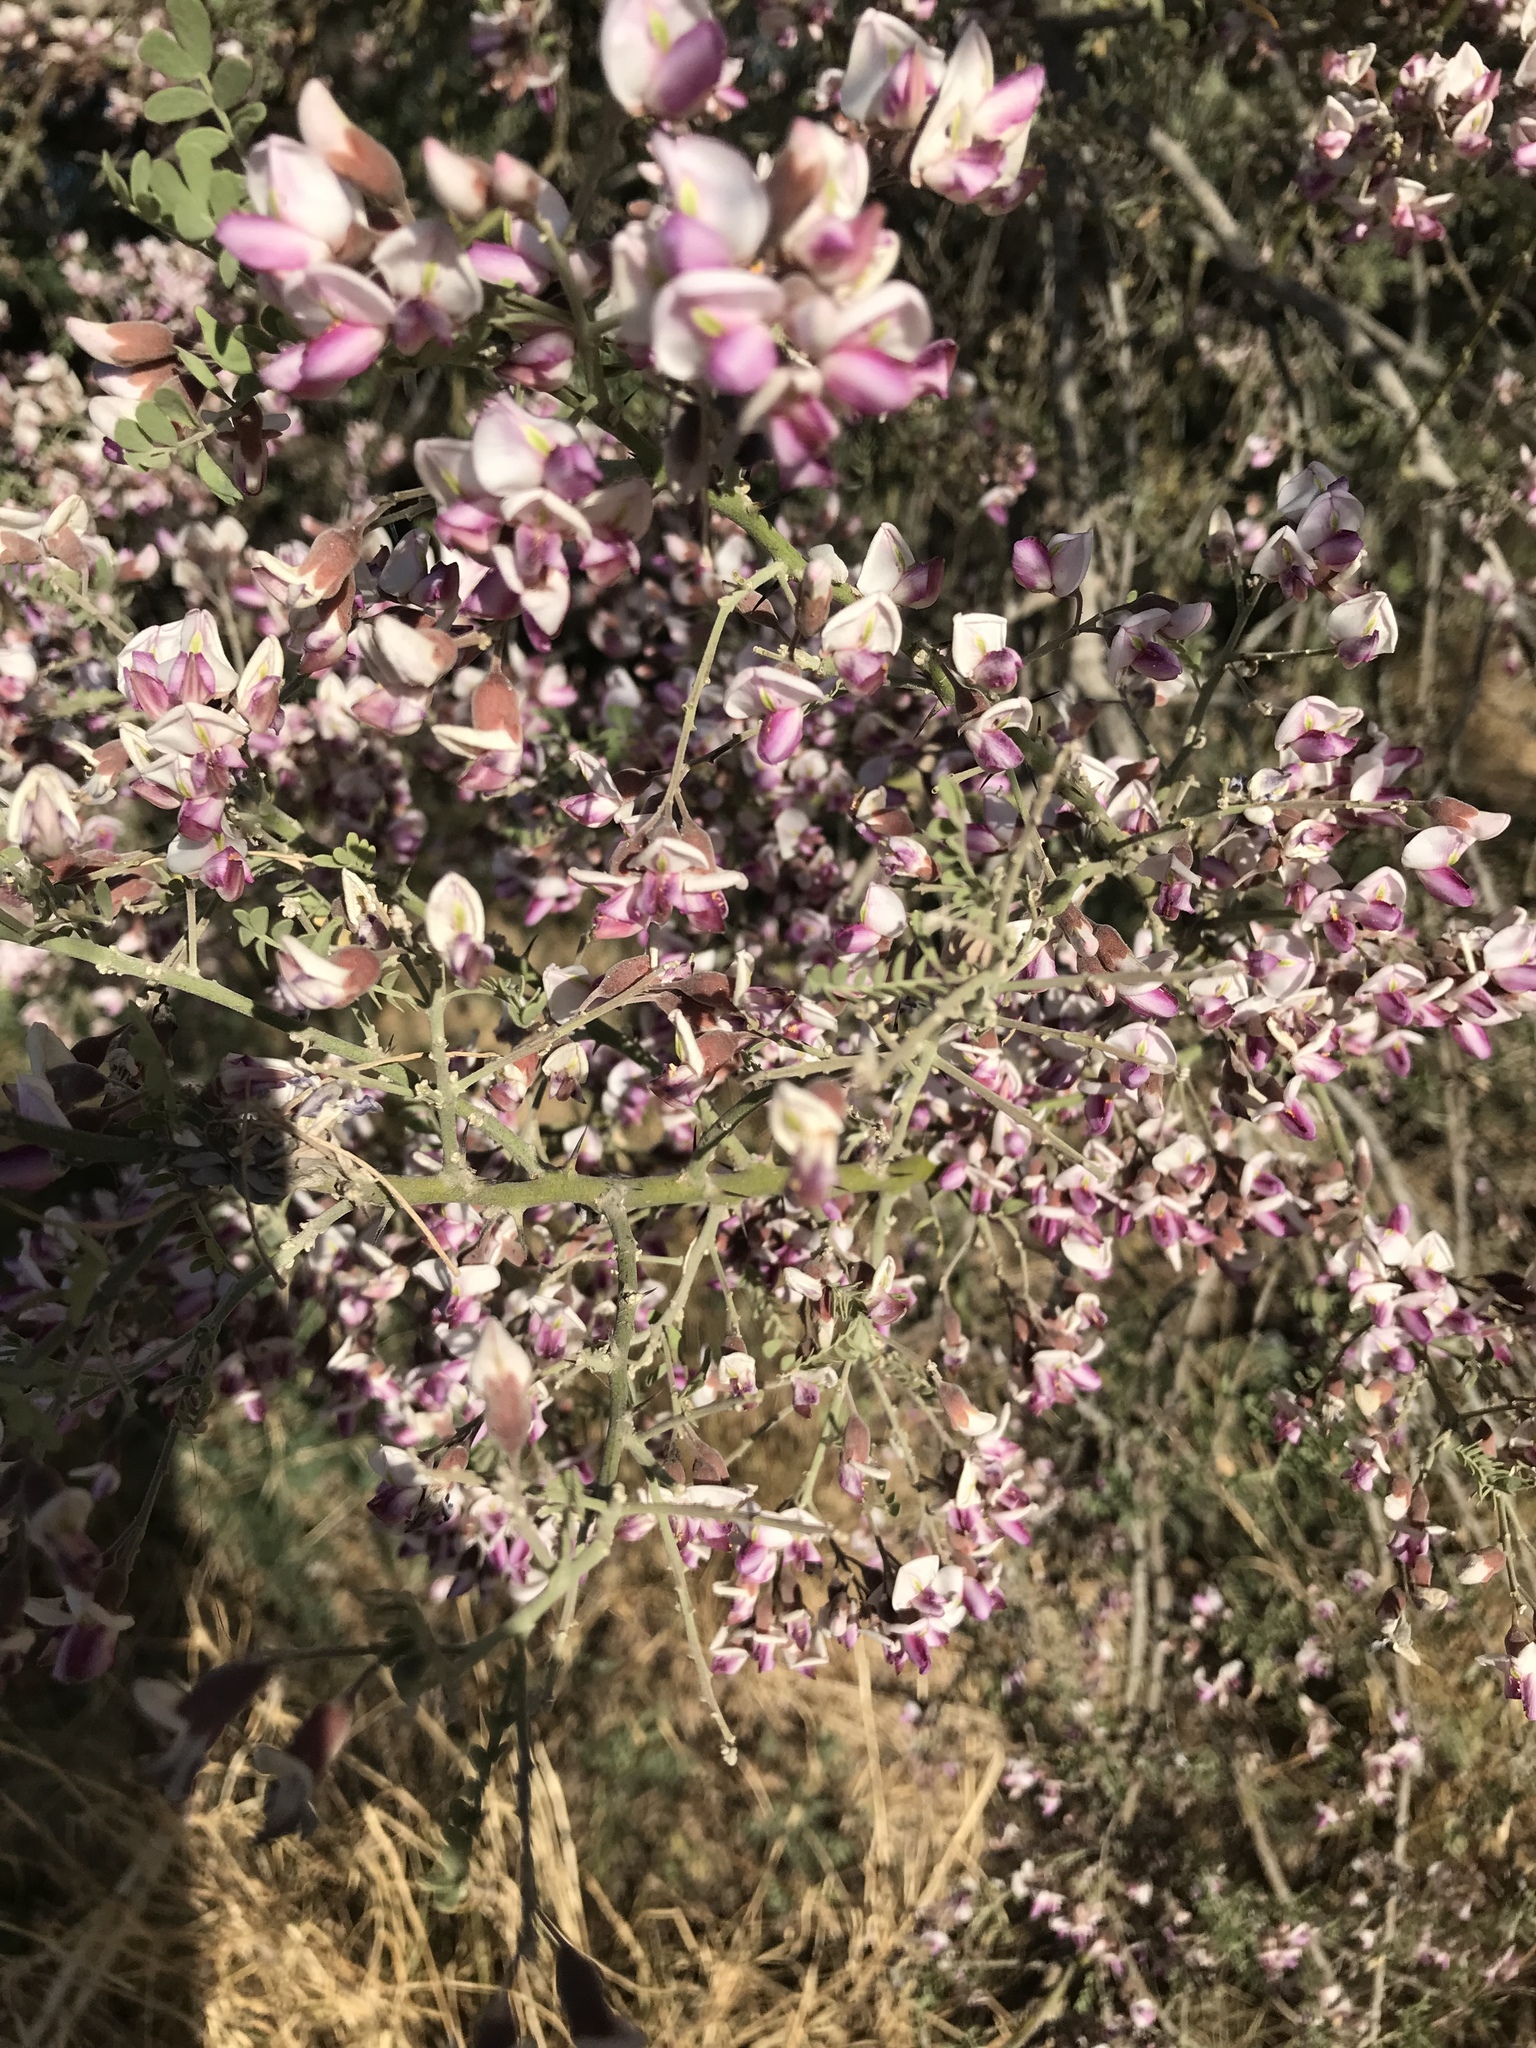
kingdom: Plantae
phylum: Tracheophyta
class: Magnoliopsida
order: Fabales
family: Fabaceae
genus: Olneya
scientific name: Olneya tesota
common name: Desert ironwood
